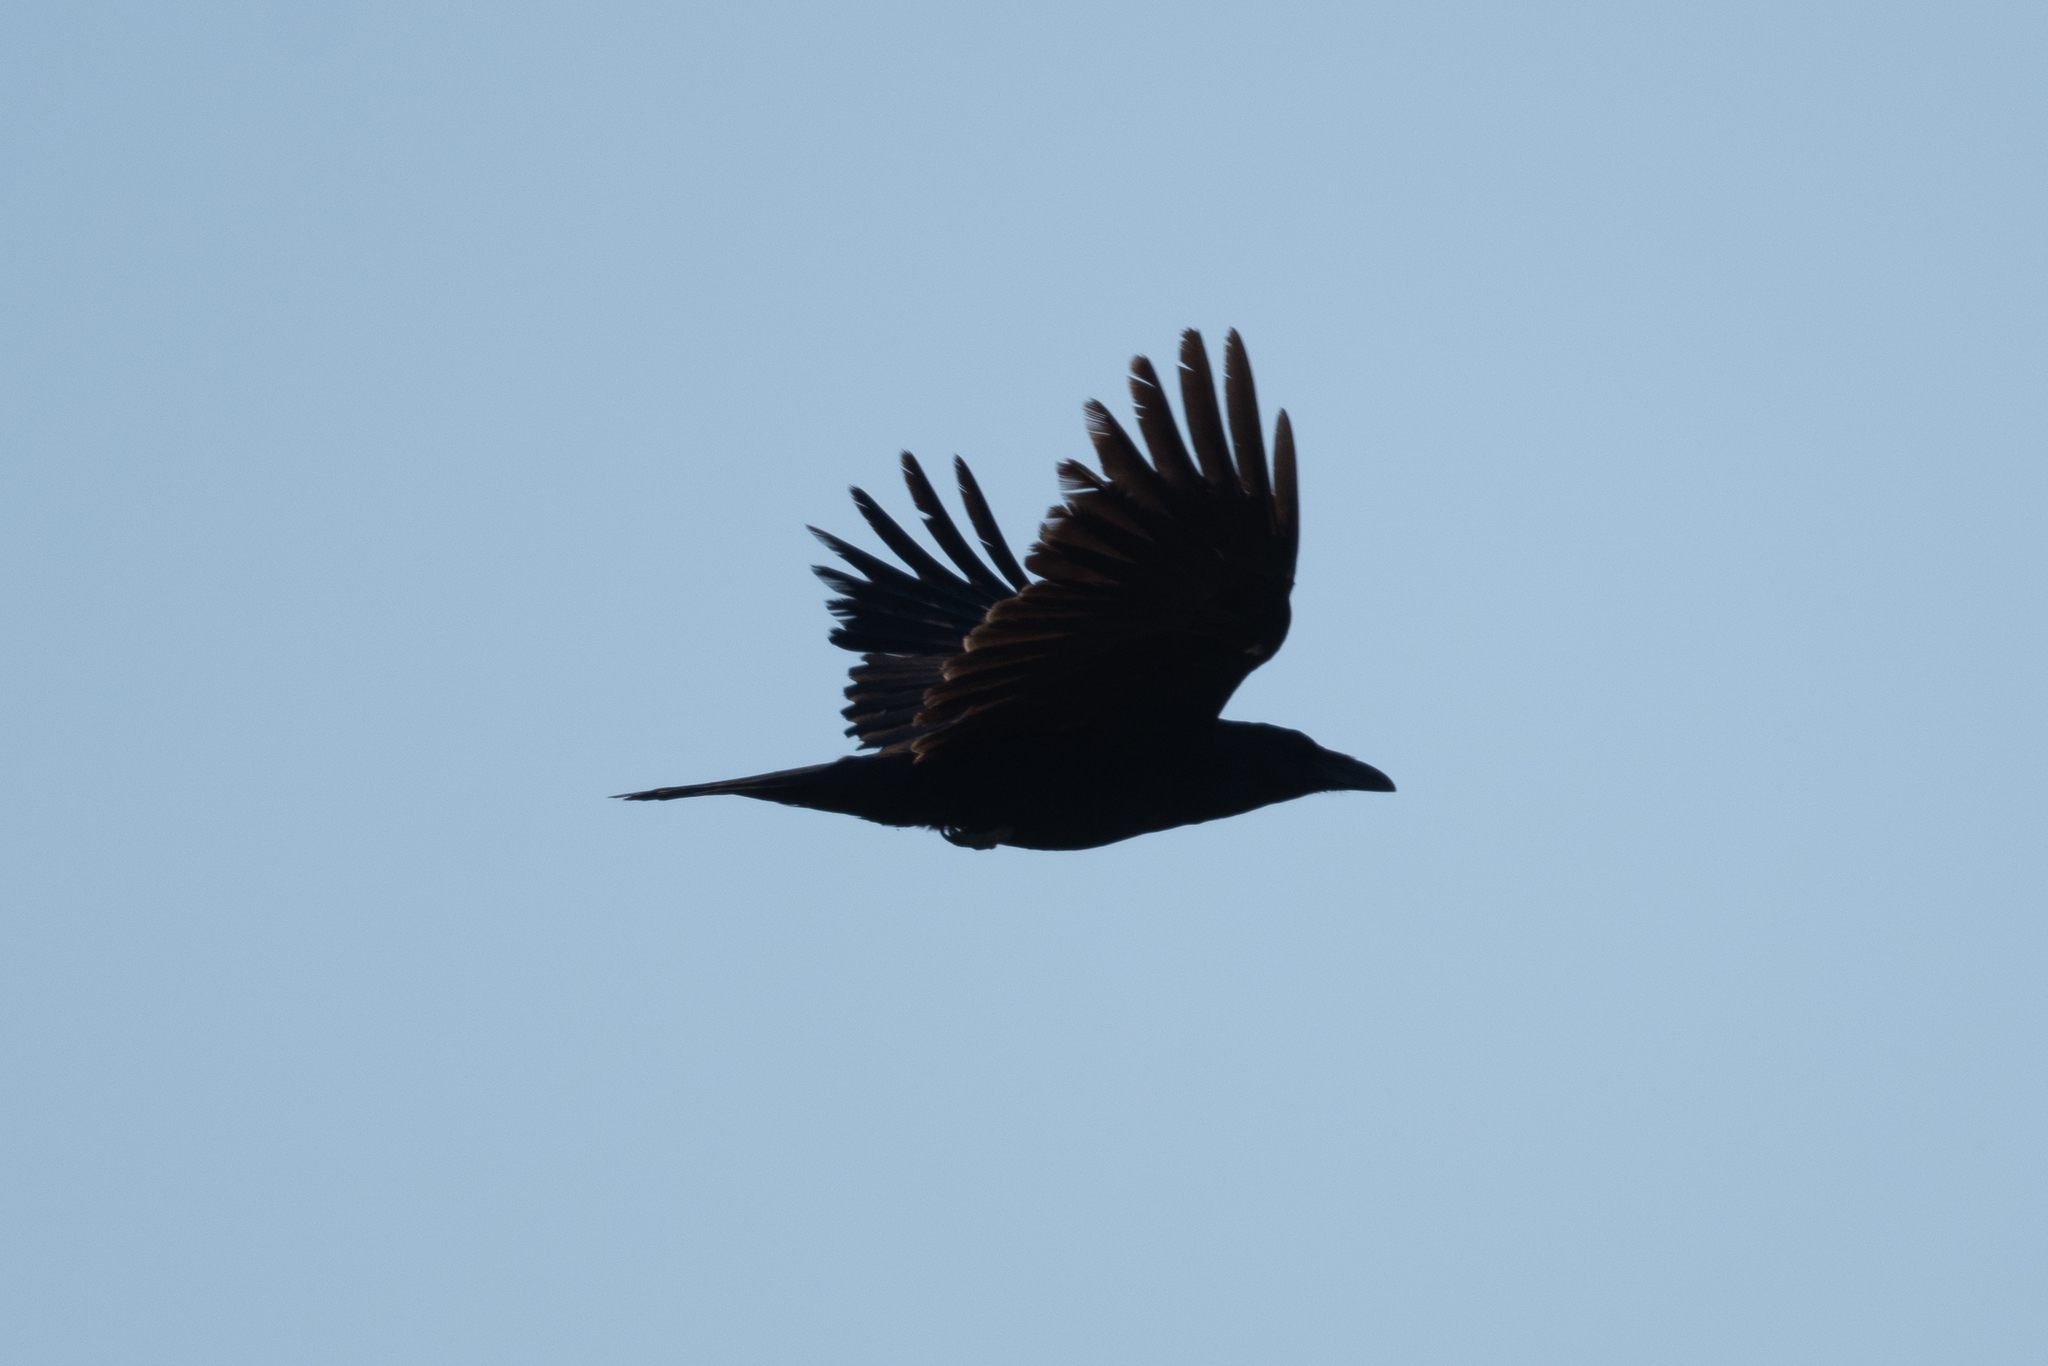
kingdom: Animalia
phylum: Chordata
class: Aves
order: Passeriformes
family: Corvidae
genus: Corvus
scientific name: Corvus corax
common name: Common raven
